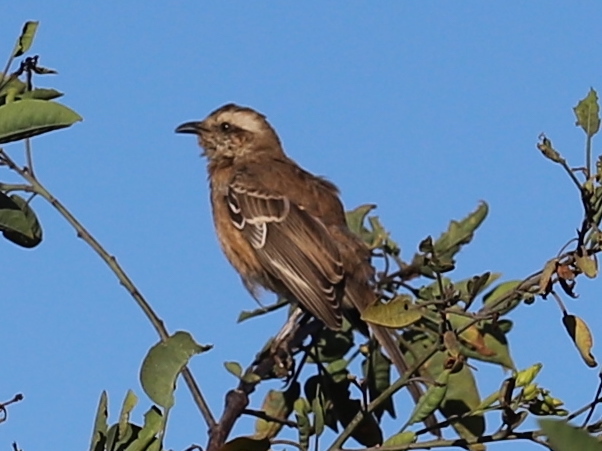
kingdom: Animalia
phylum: Chordata
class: Aves
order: Passeriformes
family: Mimidae
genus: Mimus
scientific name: Mimus thenca
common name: Chilean mockingbird
